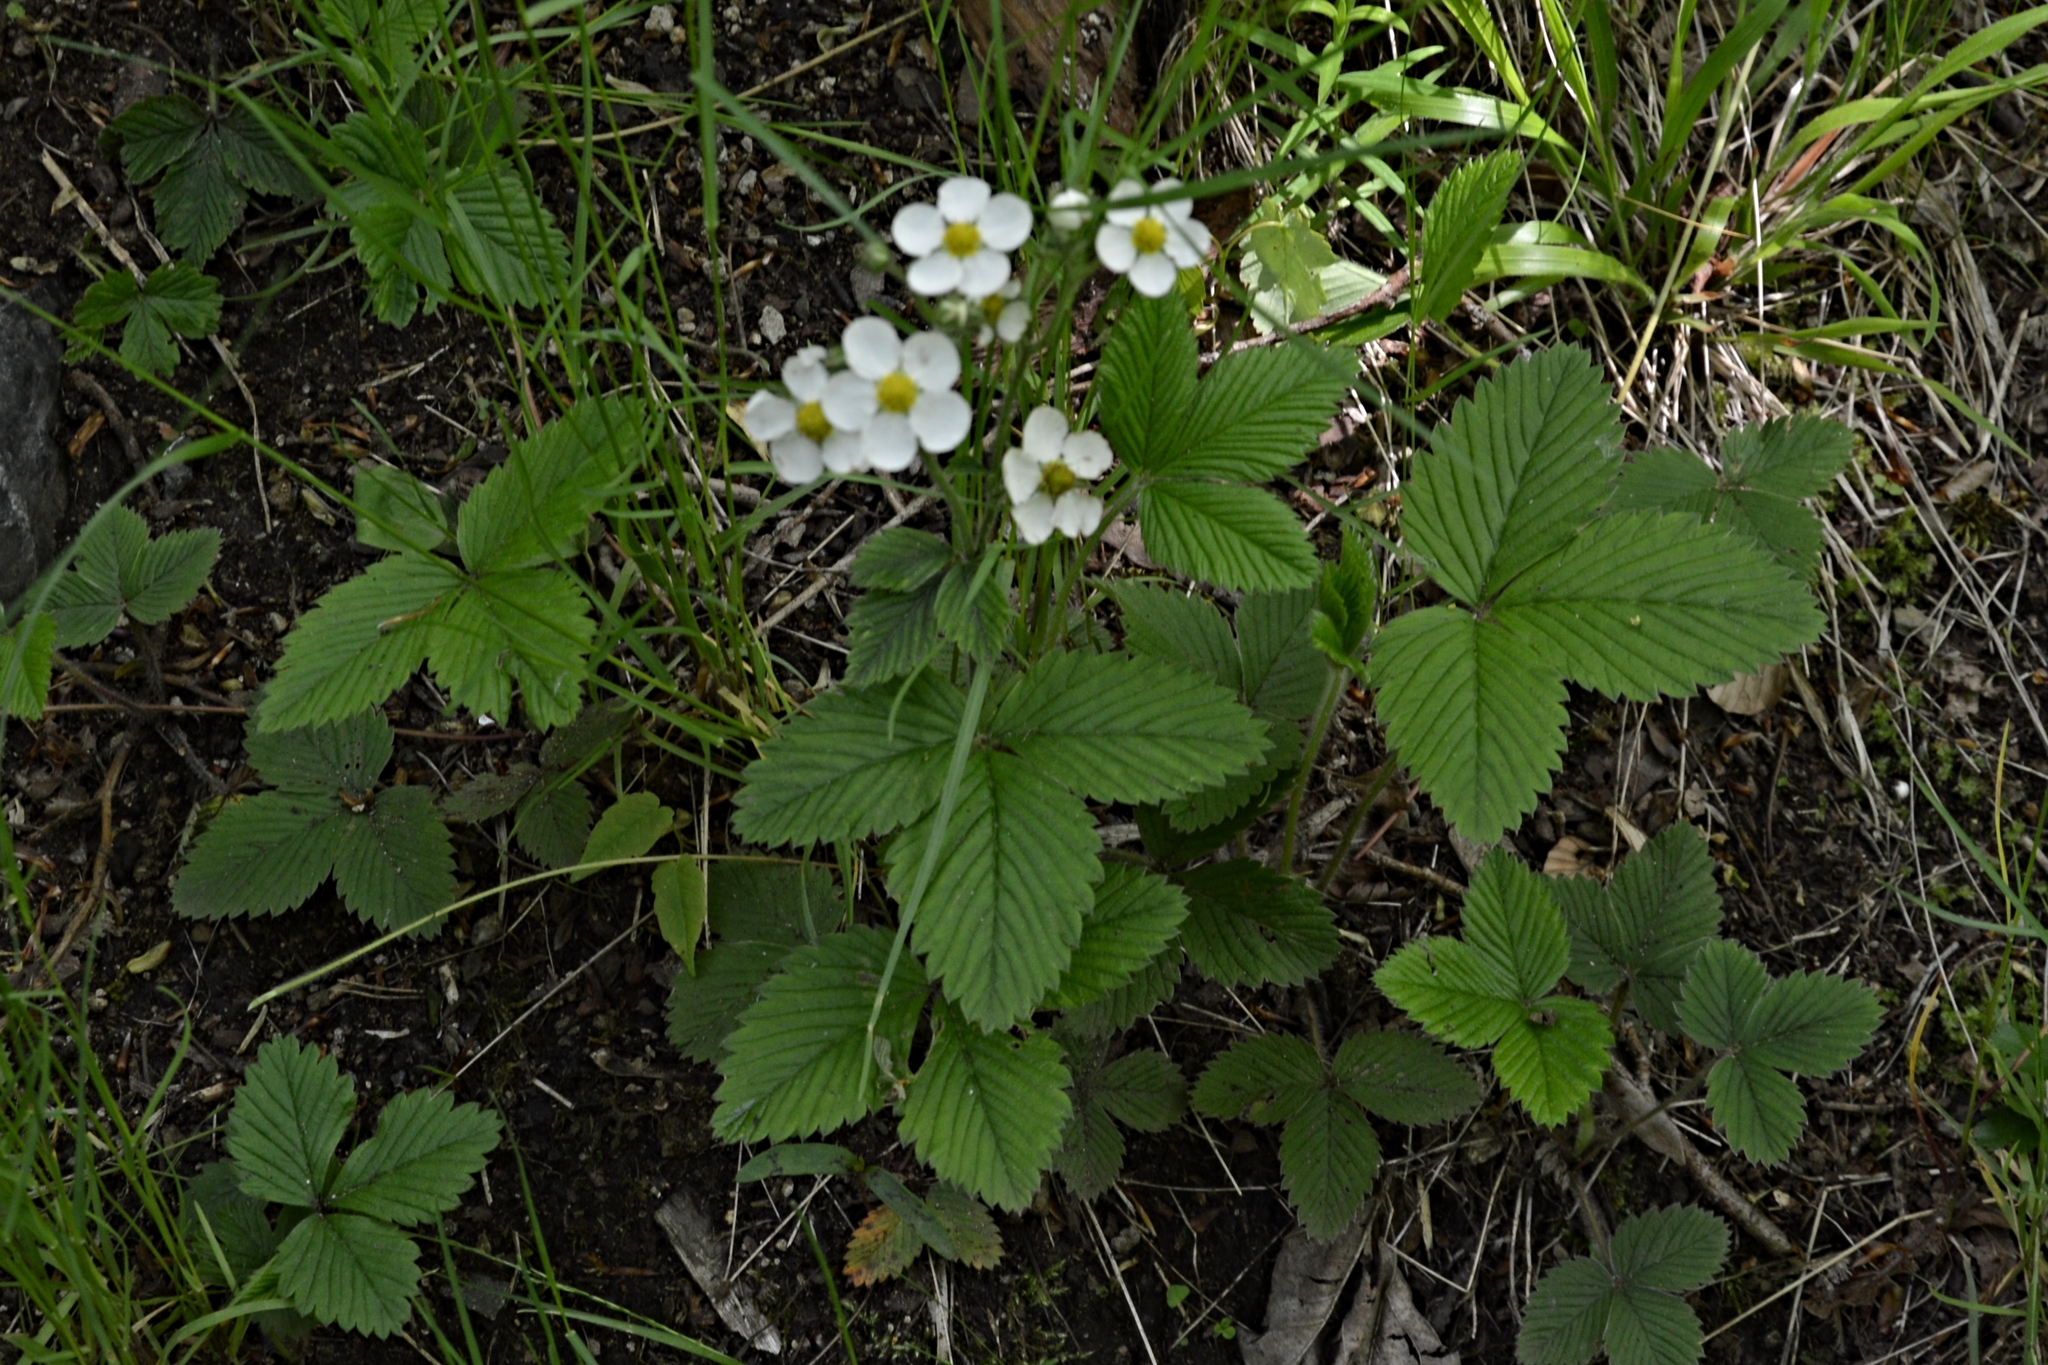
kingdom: Plantae
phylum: Tracheophyta
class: Magnoliopsida
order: Rosales
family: Rosaceae
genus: Fragaria
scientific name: Fragaria moschata
